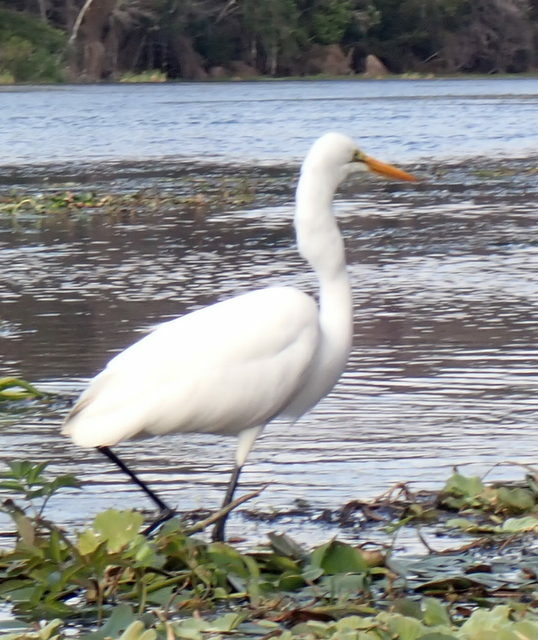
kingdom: Animalia
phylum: Chordata
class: Aves
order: Pelecaniformes
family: Ardeidae
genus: Ardea
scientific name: Ardea alba
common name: Great egret
